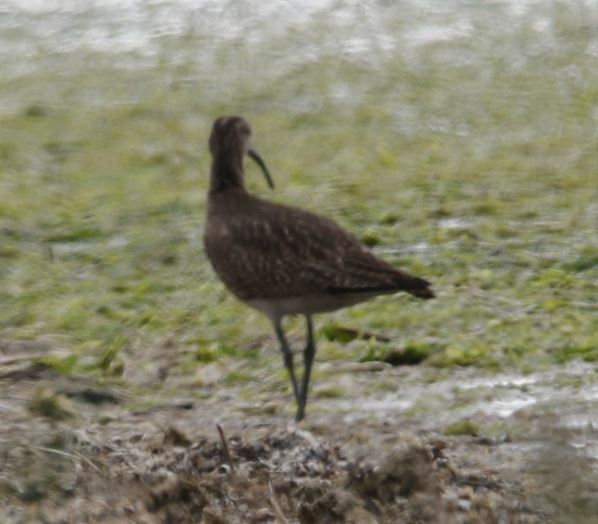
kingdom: Animalia
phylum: Chordata
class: Aves
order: Charadriiformes
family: Scolopacidae
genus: Numenius
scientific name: Numenius phaeopus
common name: Whimbrel
